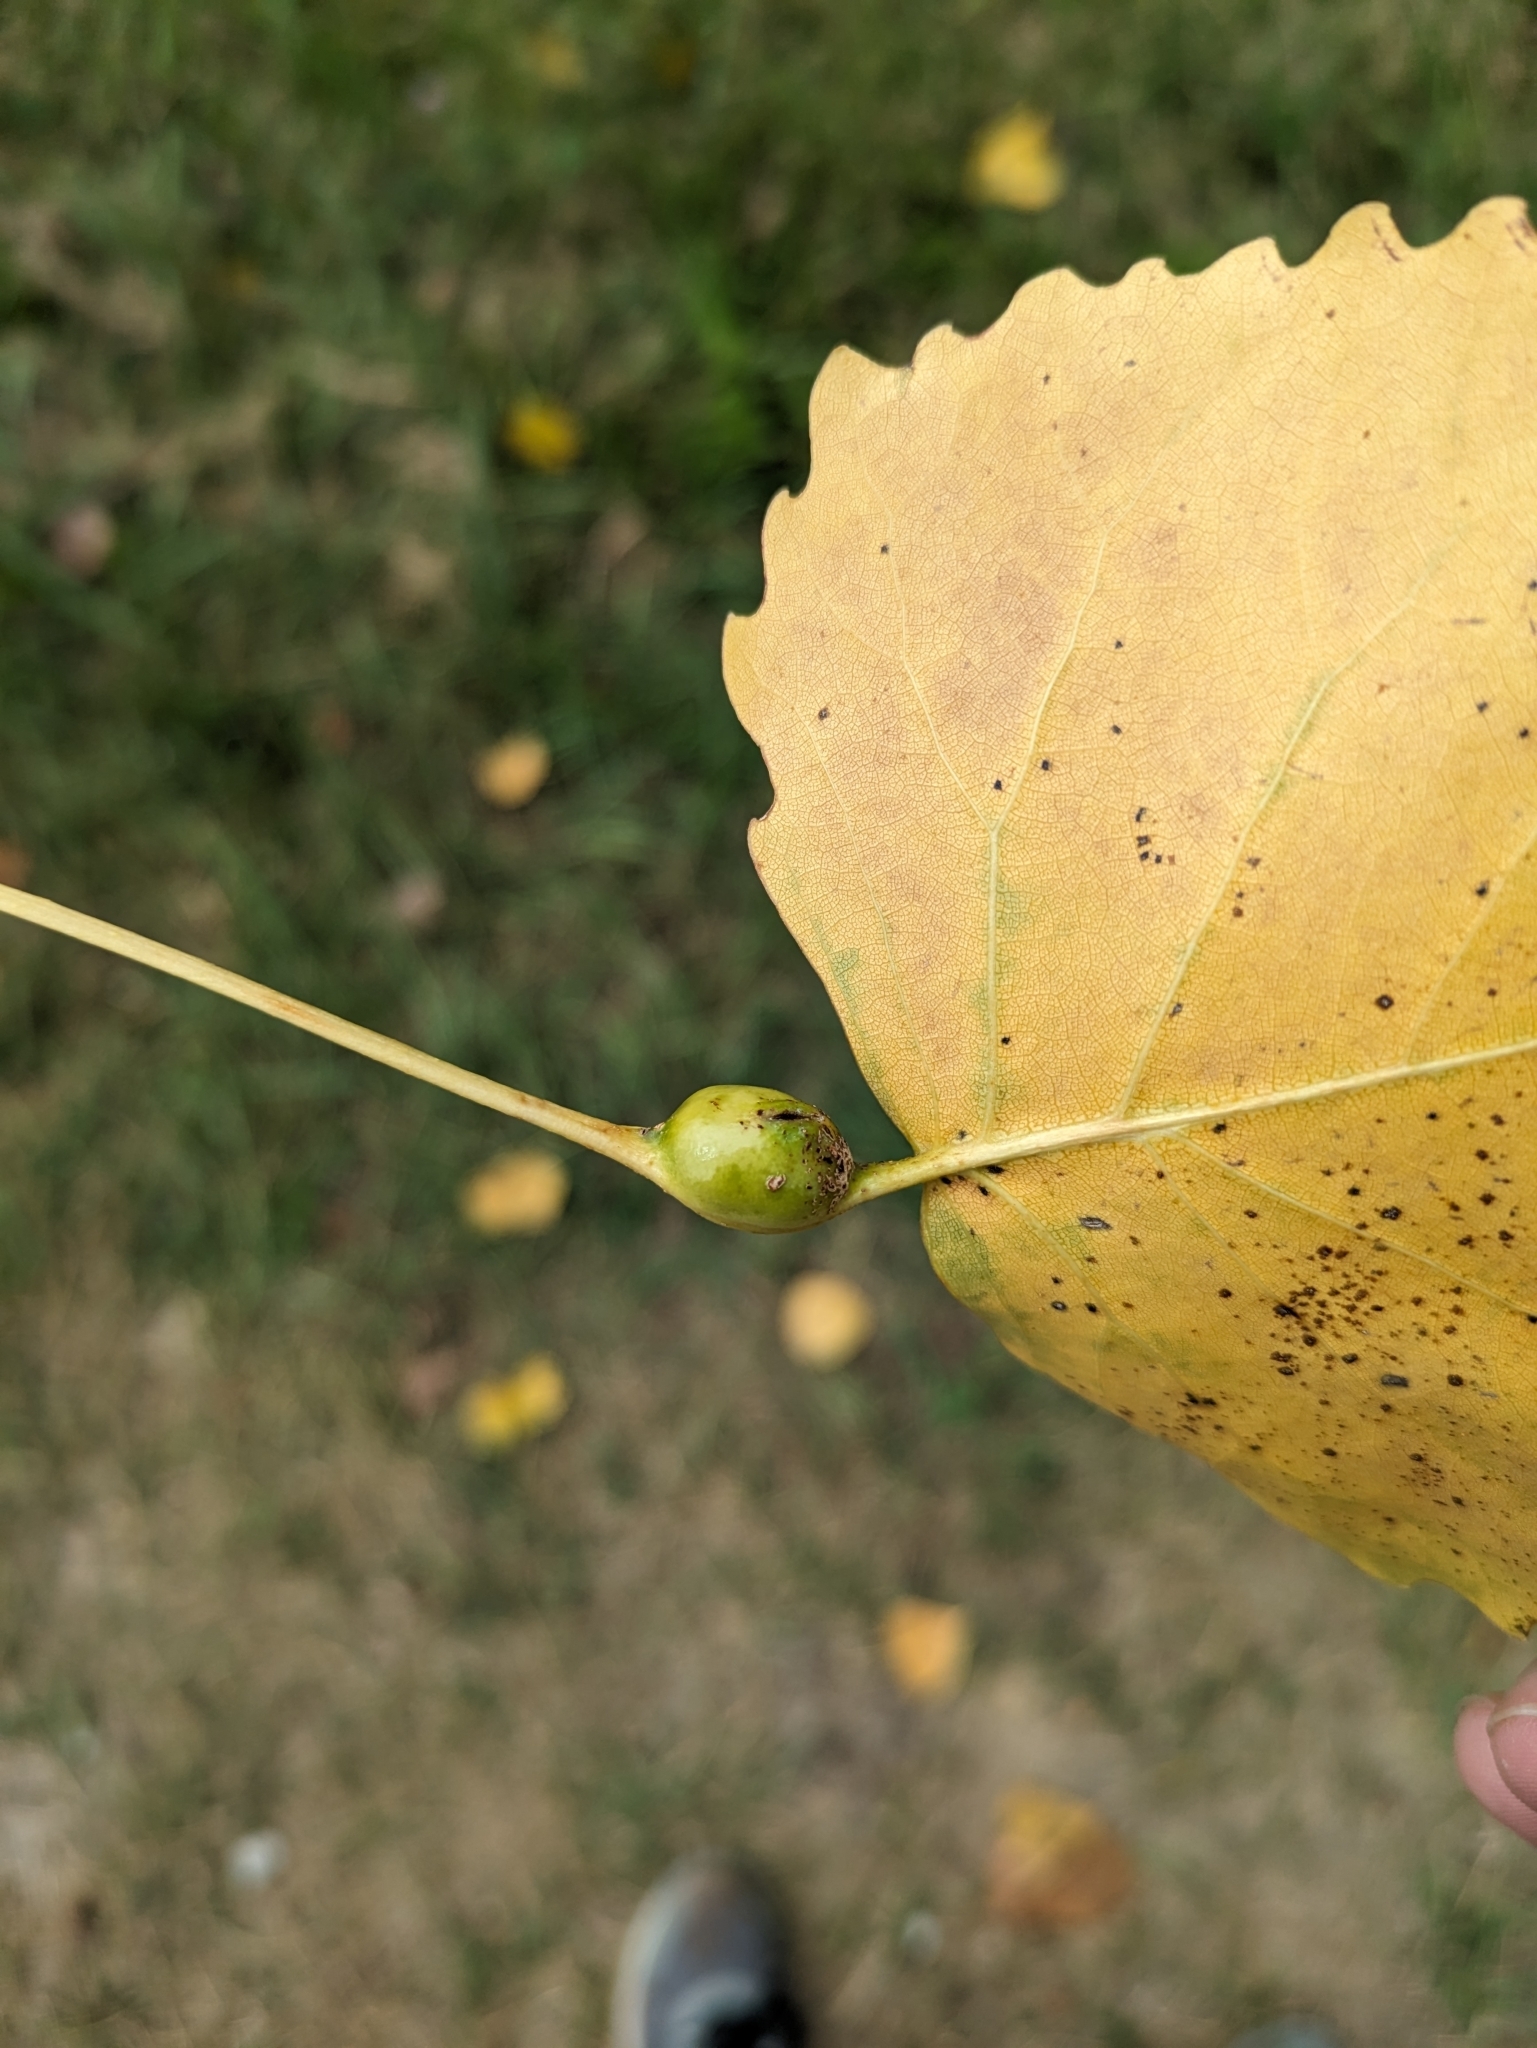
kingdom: Animalia
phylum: Arthropoda
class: Insecta
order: Hemiptera
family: Aphididae
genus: Pemphigus
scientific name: Pemphigus populitransversus
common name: Poplar petiolegall aphid
